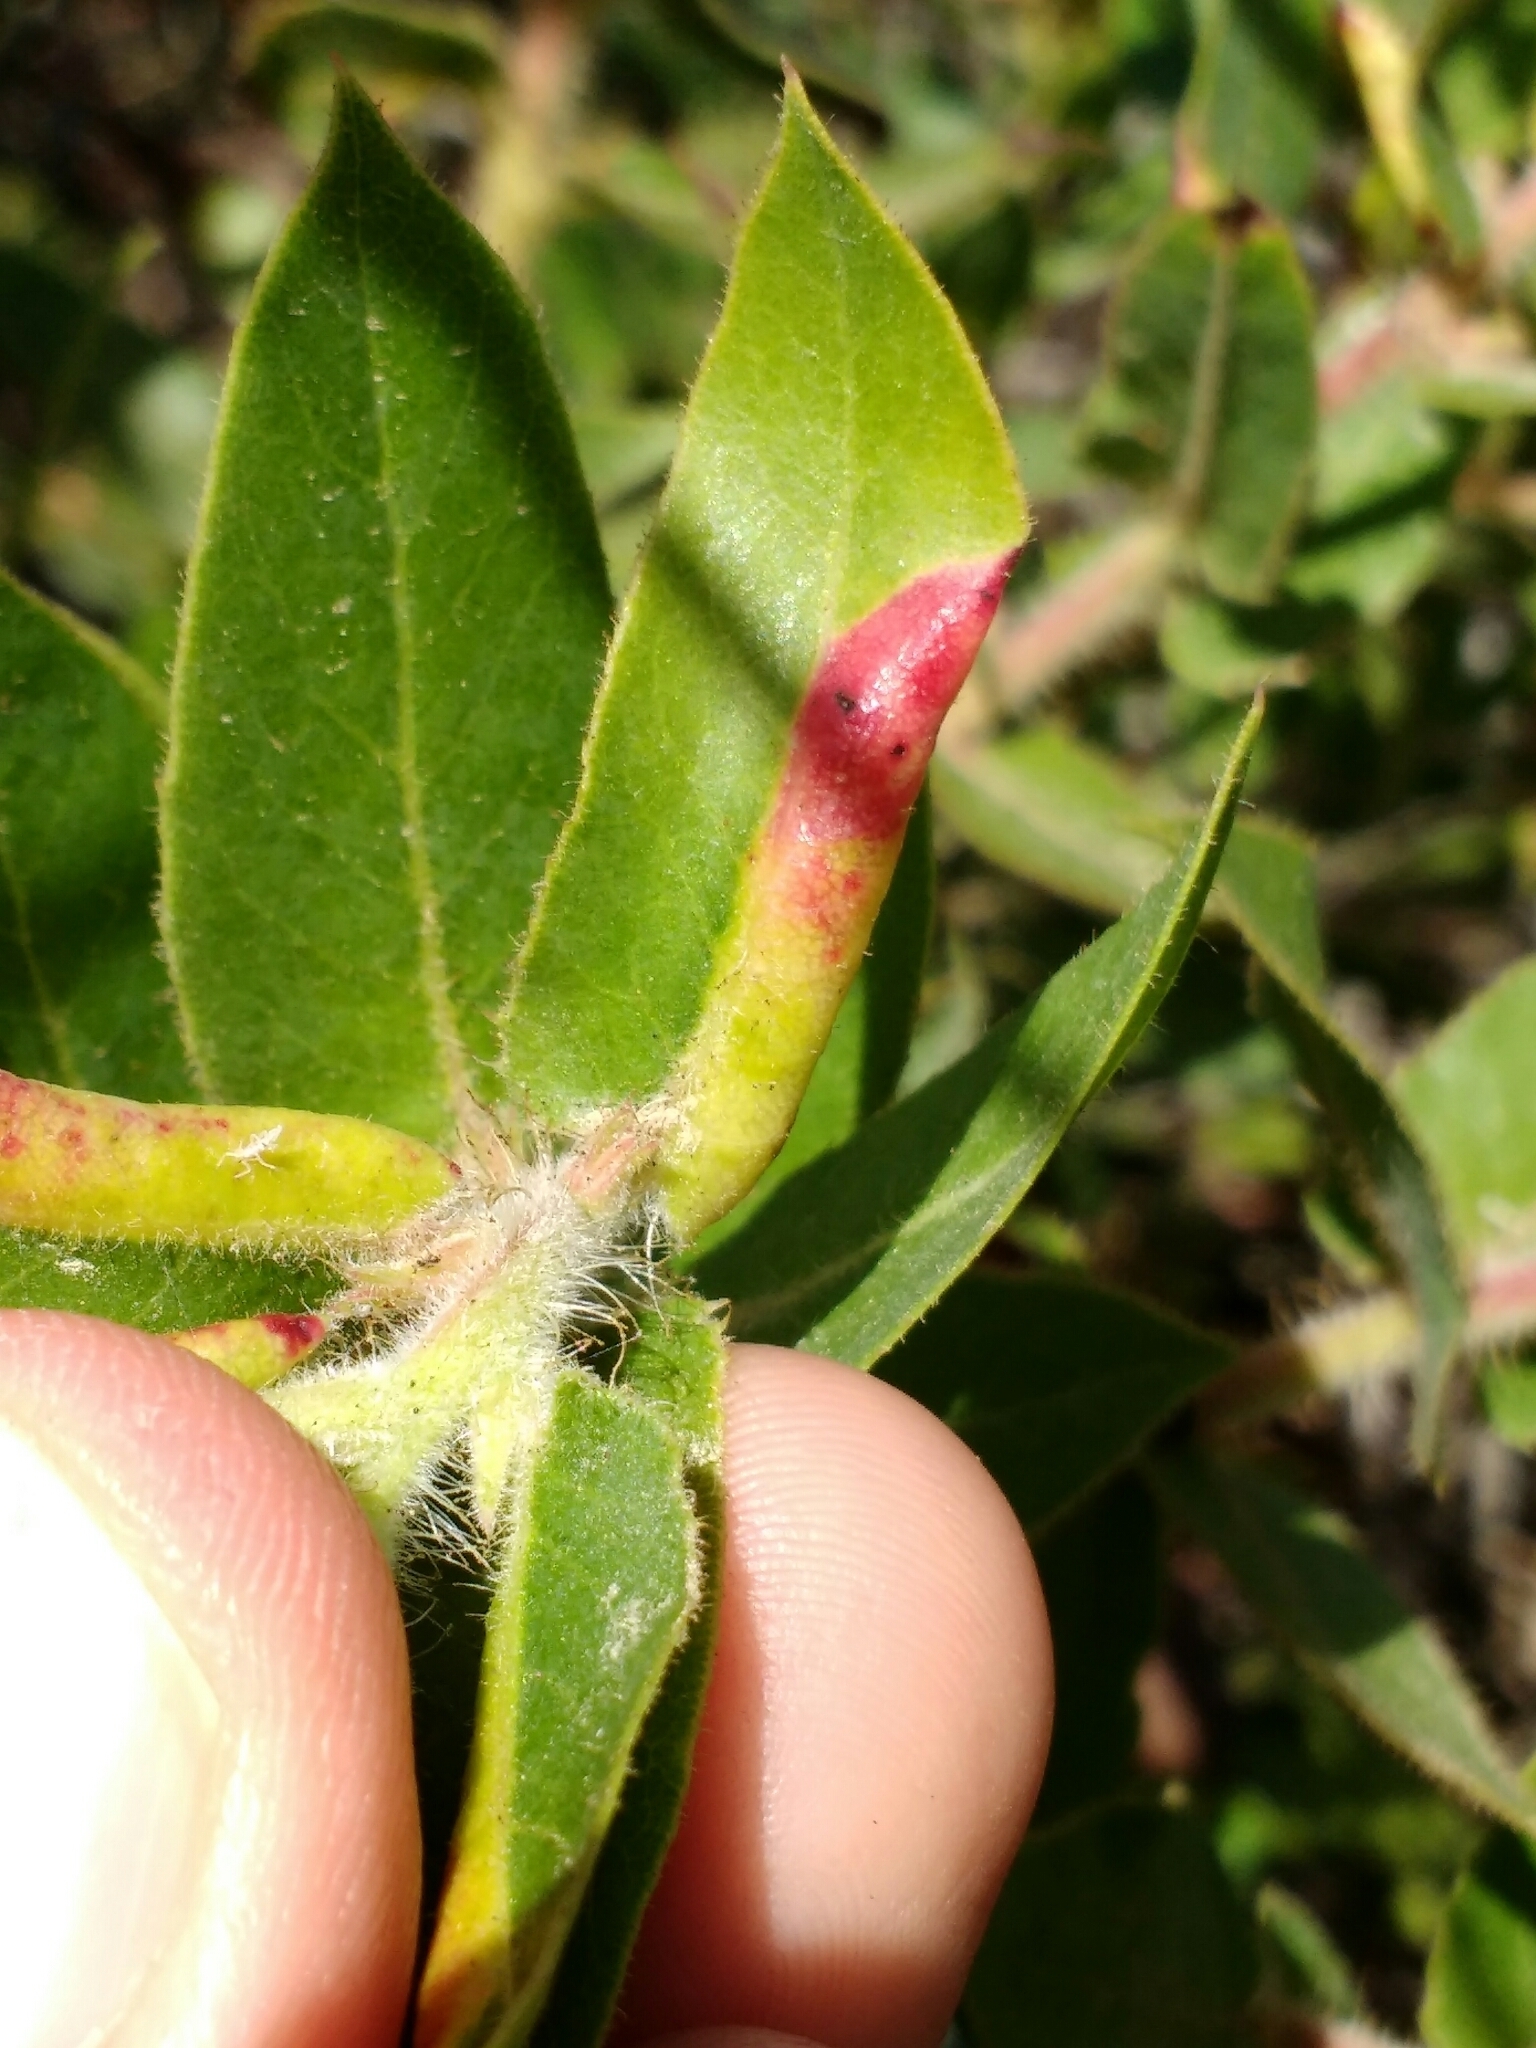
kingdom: Animalia
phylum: Arthropoda
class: Insecta
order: Hemiptera
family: Aphididae
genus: Tamalia
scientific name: Tamalia coweni
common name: Manzanita leafgall aphid
